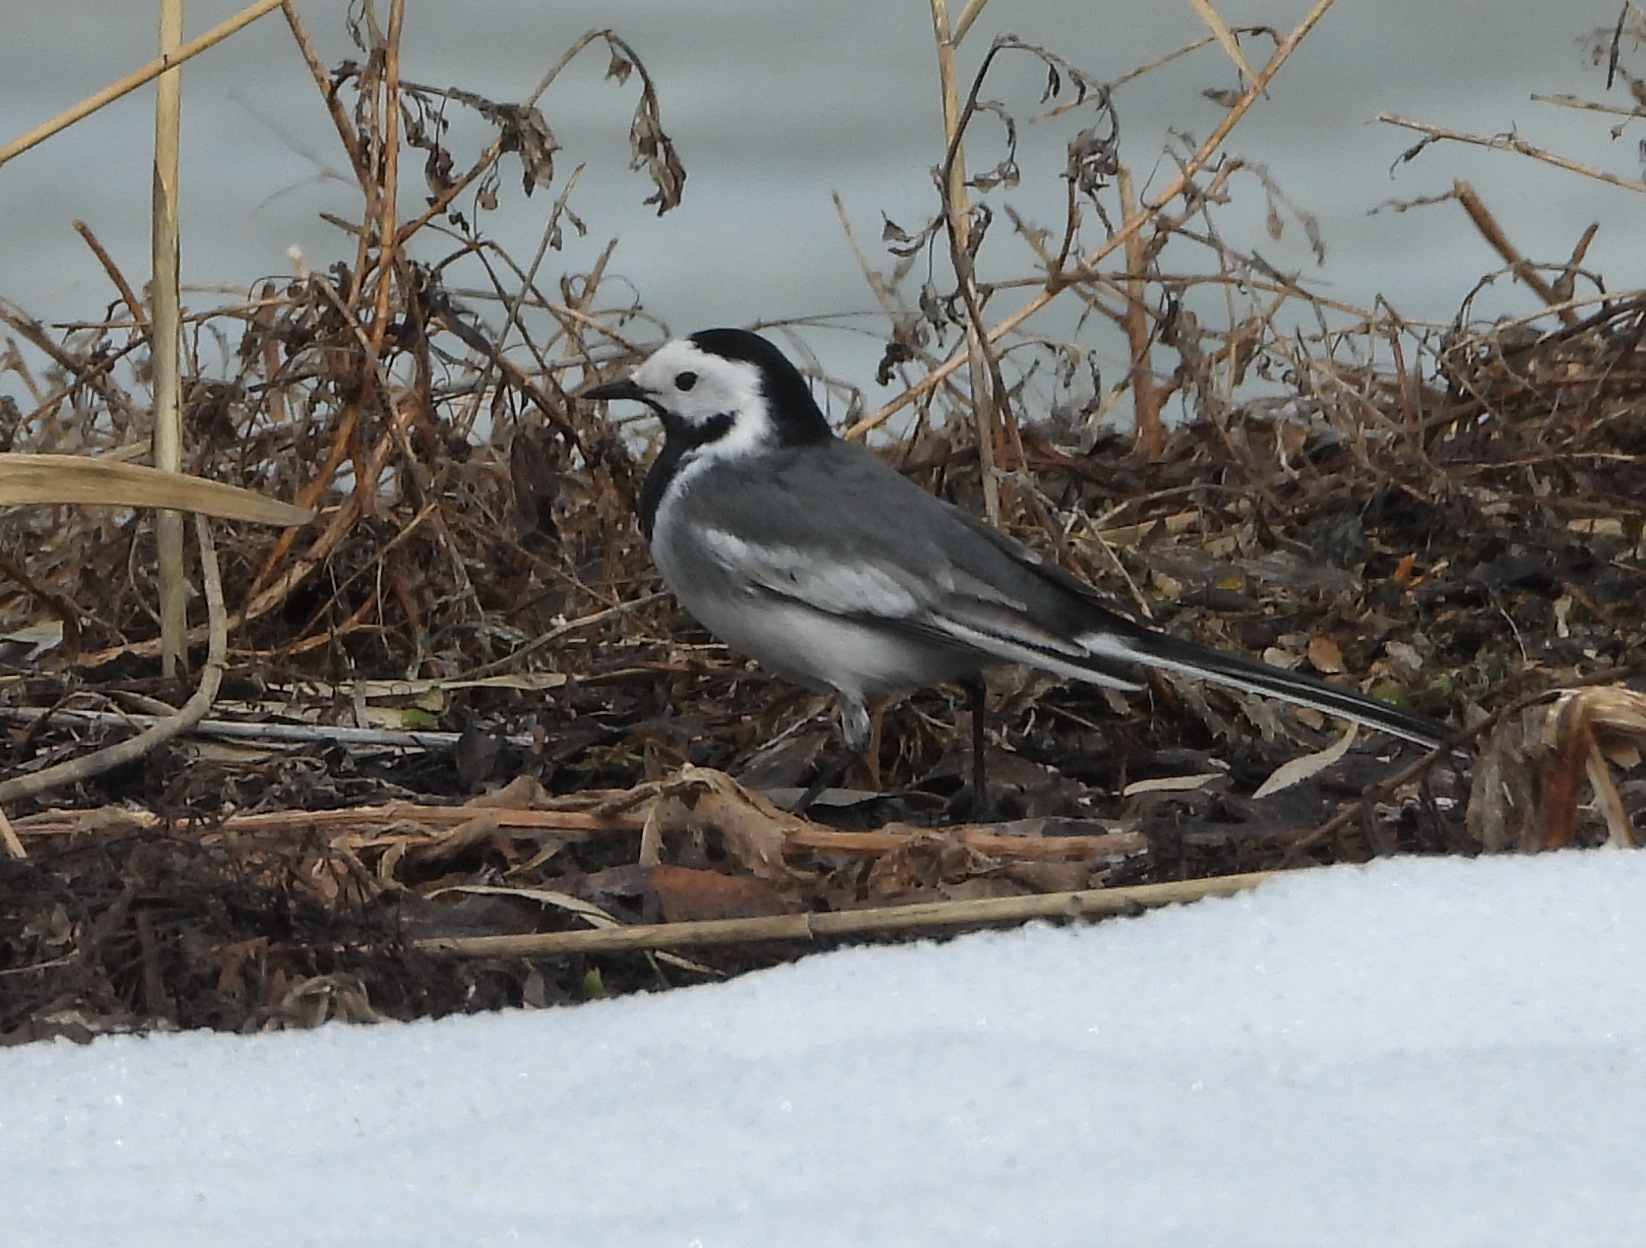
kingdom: Animalia
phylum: Chordata
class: Aves
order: Passeriformes
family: Motacillidae
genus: Motacilla
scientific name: Motacilla alba
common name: White wagtail
